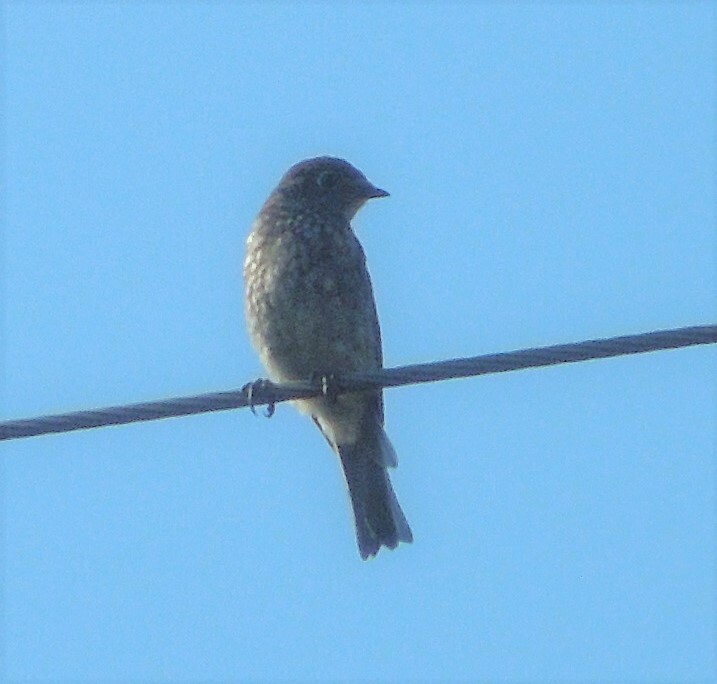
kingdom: Animalia
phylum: Chordata
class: Aves
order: Passeriformes
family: Turdidae
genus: Sialia
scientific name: Sialia sialis
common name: Eastern bluebird
